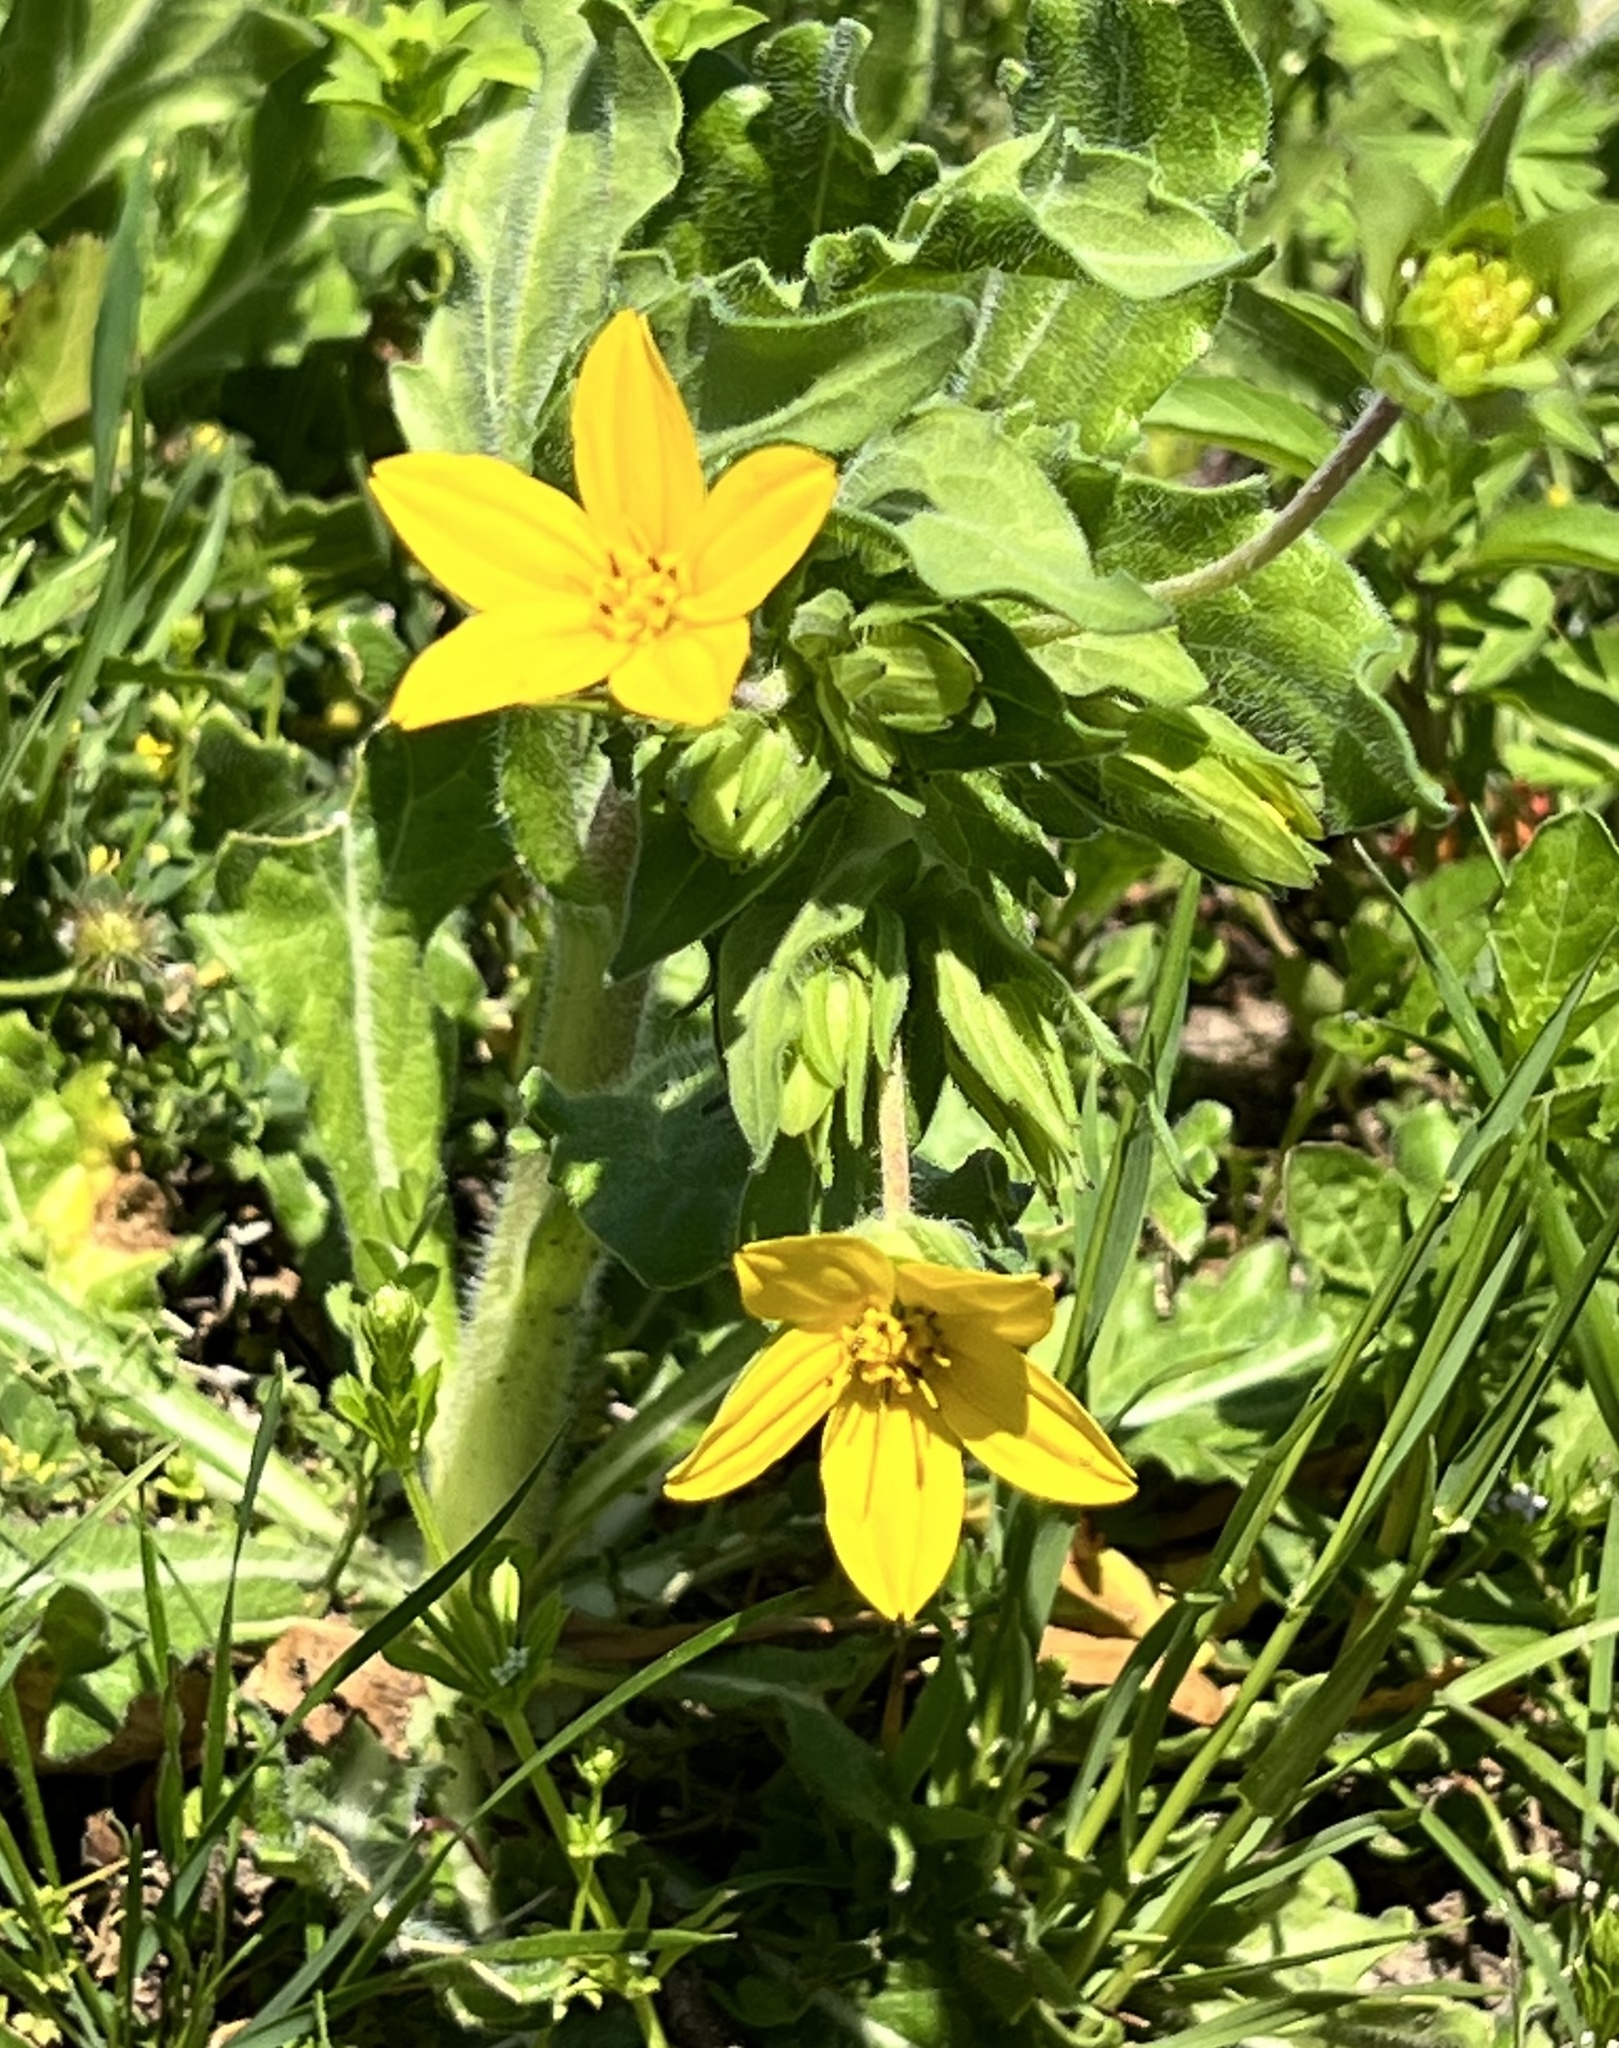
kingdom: Plantae
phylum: Tracheophyta
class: Magnoliopsida
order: Asterales
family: Asteraceae
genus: Lindheimera
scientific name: Lindheimera texana
